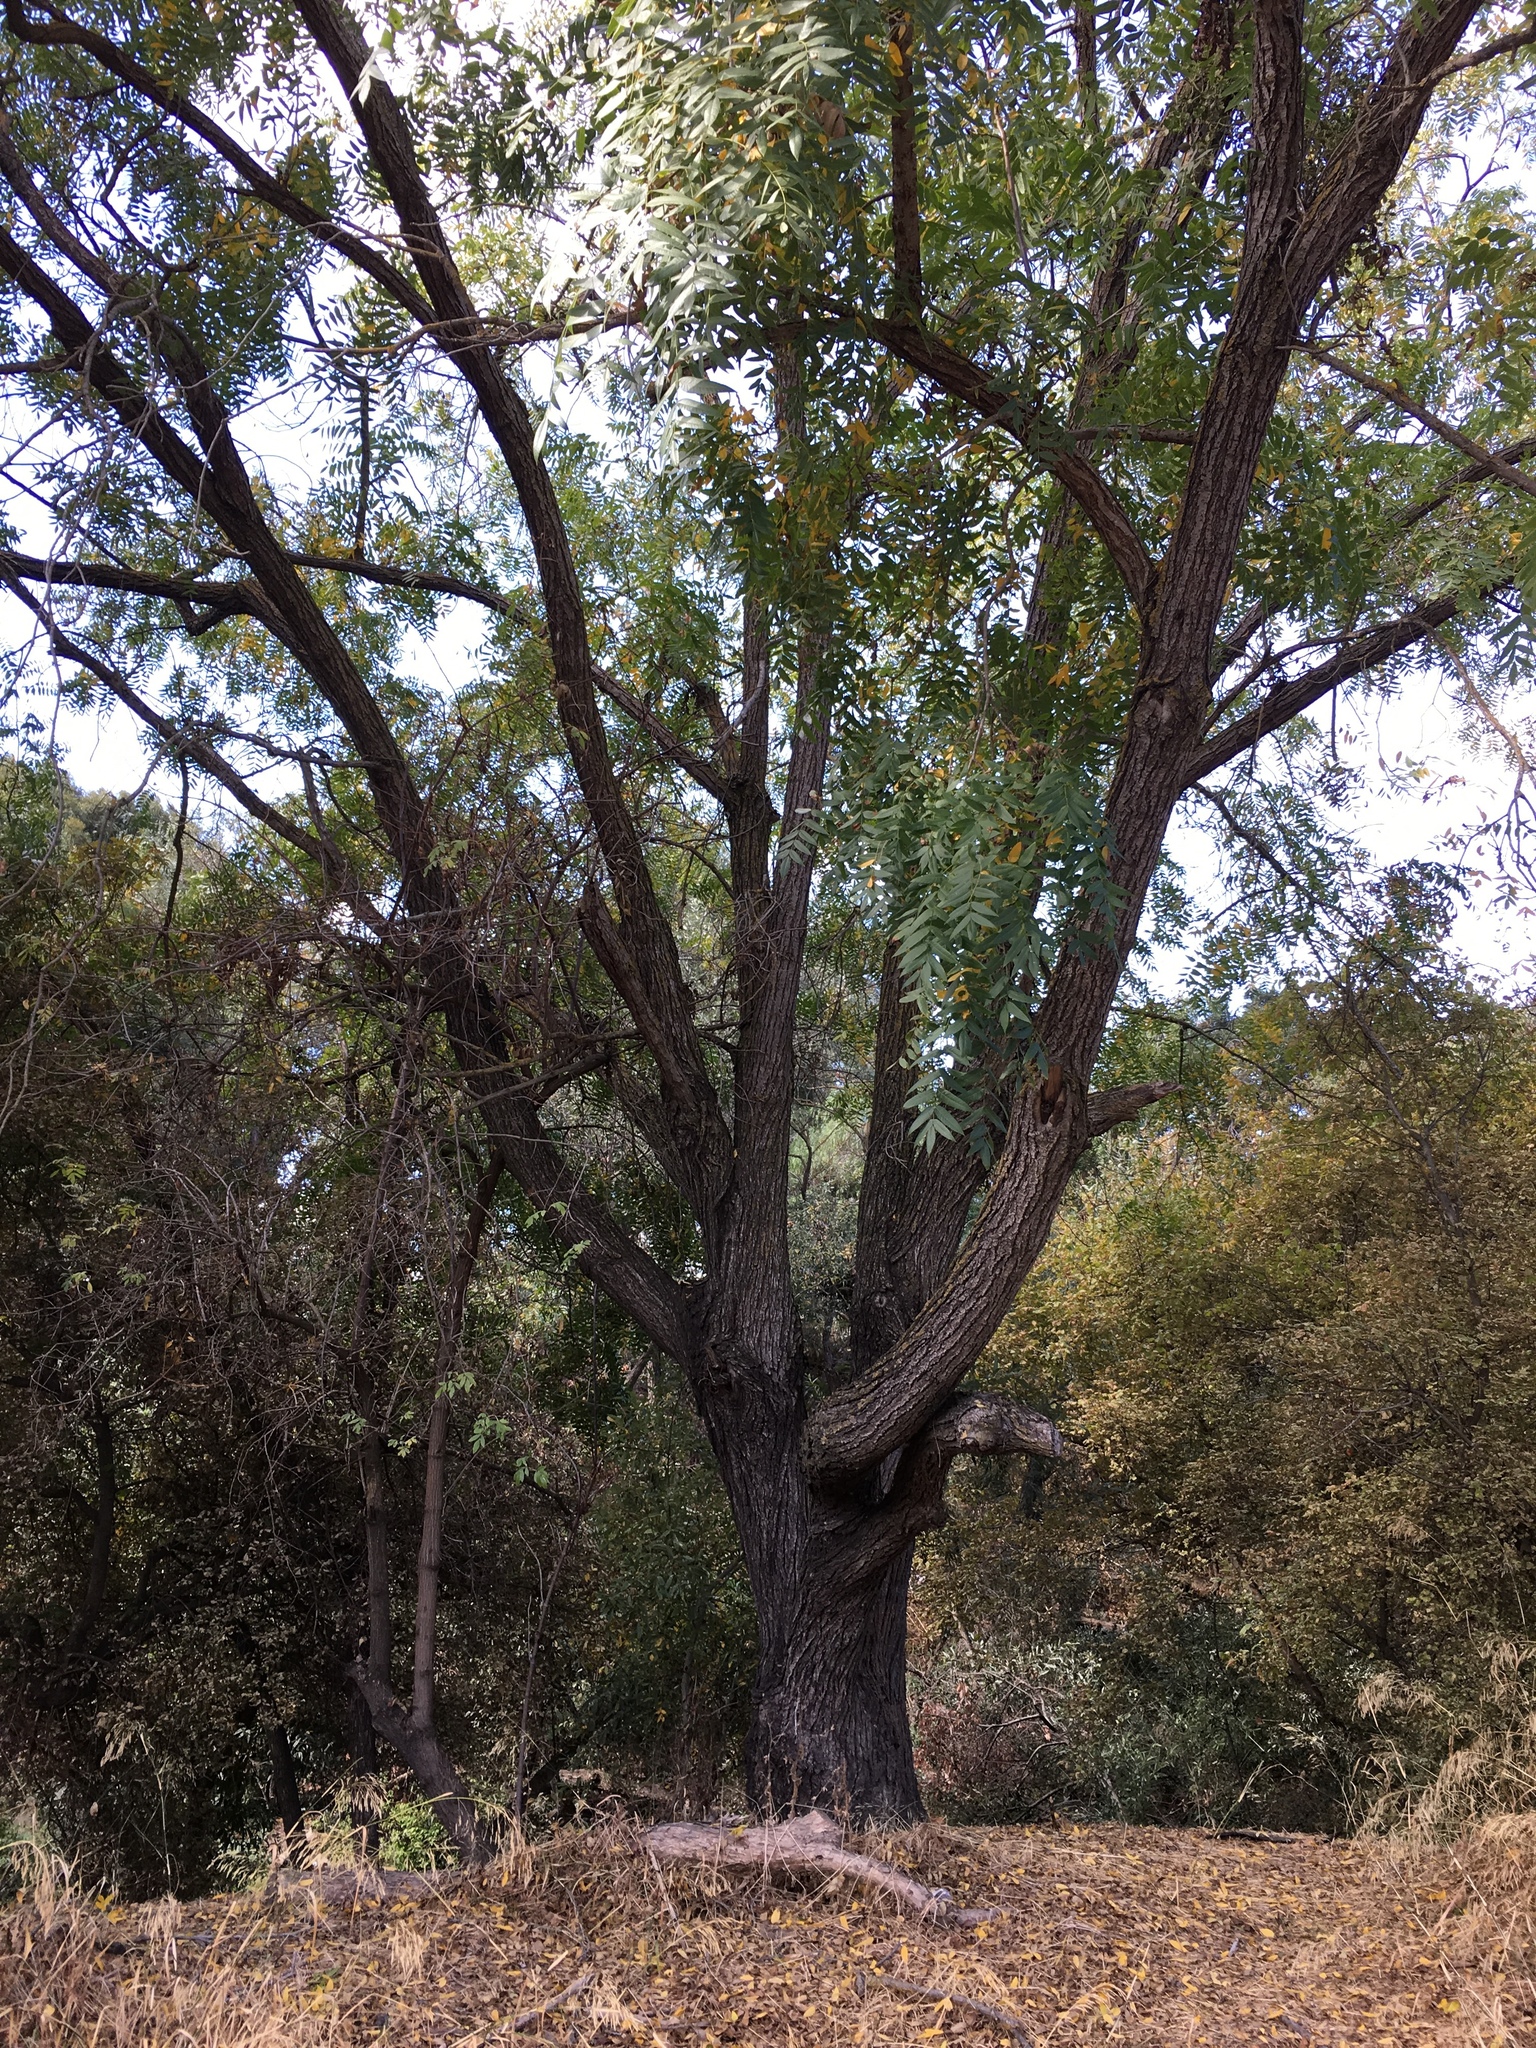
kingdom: Plantae
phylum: Tracheophyta
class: Magnoliopsida
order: Fagales
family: Juglandaceae
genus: Juglans
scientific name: Juglans hindsii
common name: Northern california black walnut
